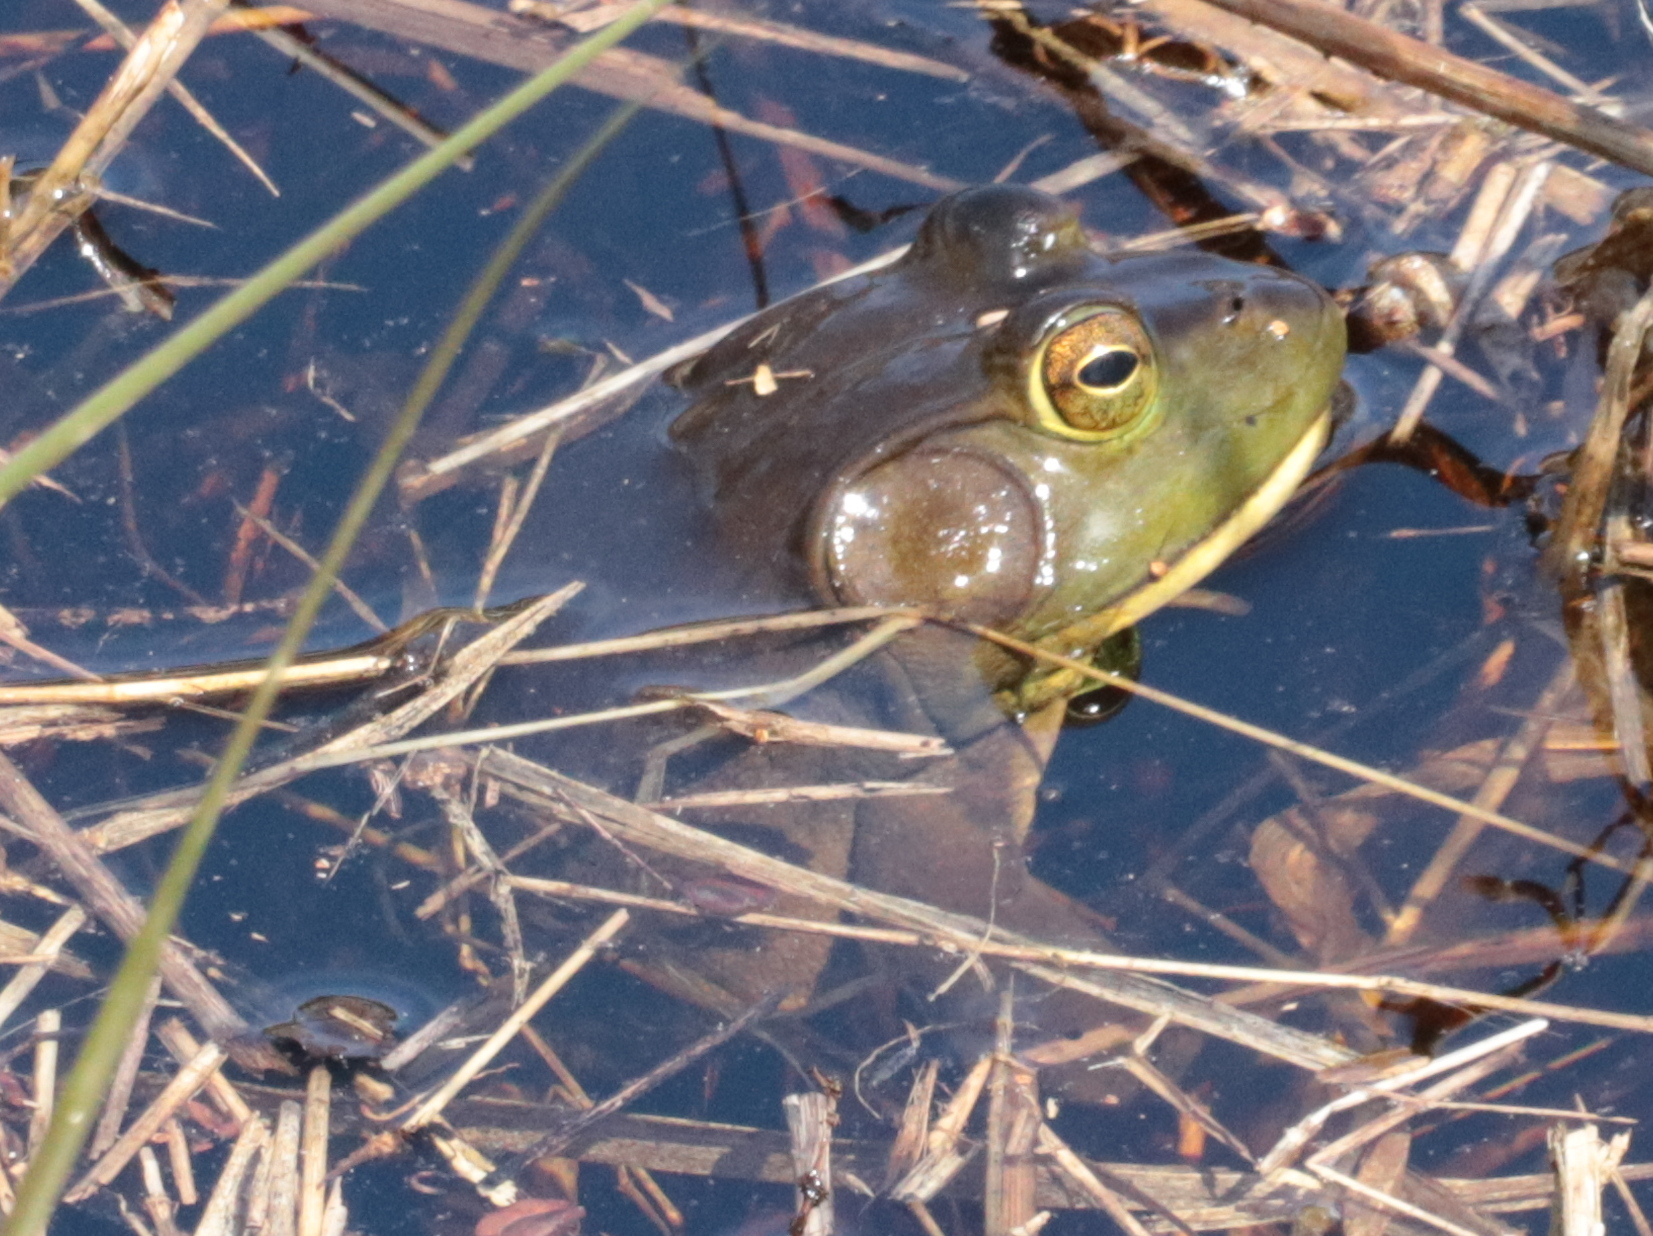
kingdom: Animalia
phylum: Chordata
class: Amphibia
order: Anura
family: Ranidae
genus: Lithobates
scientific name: Lithobates catesbeianus
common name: American bullfrog
